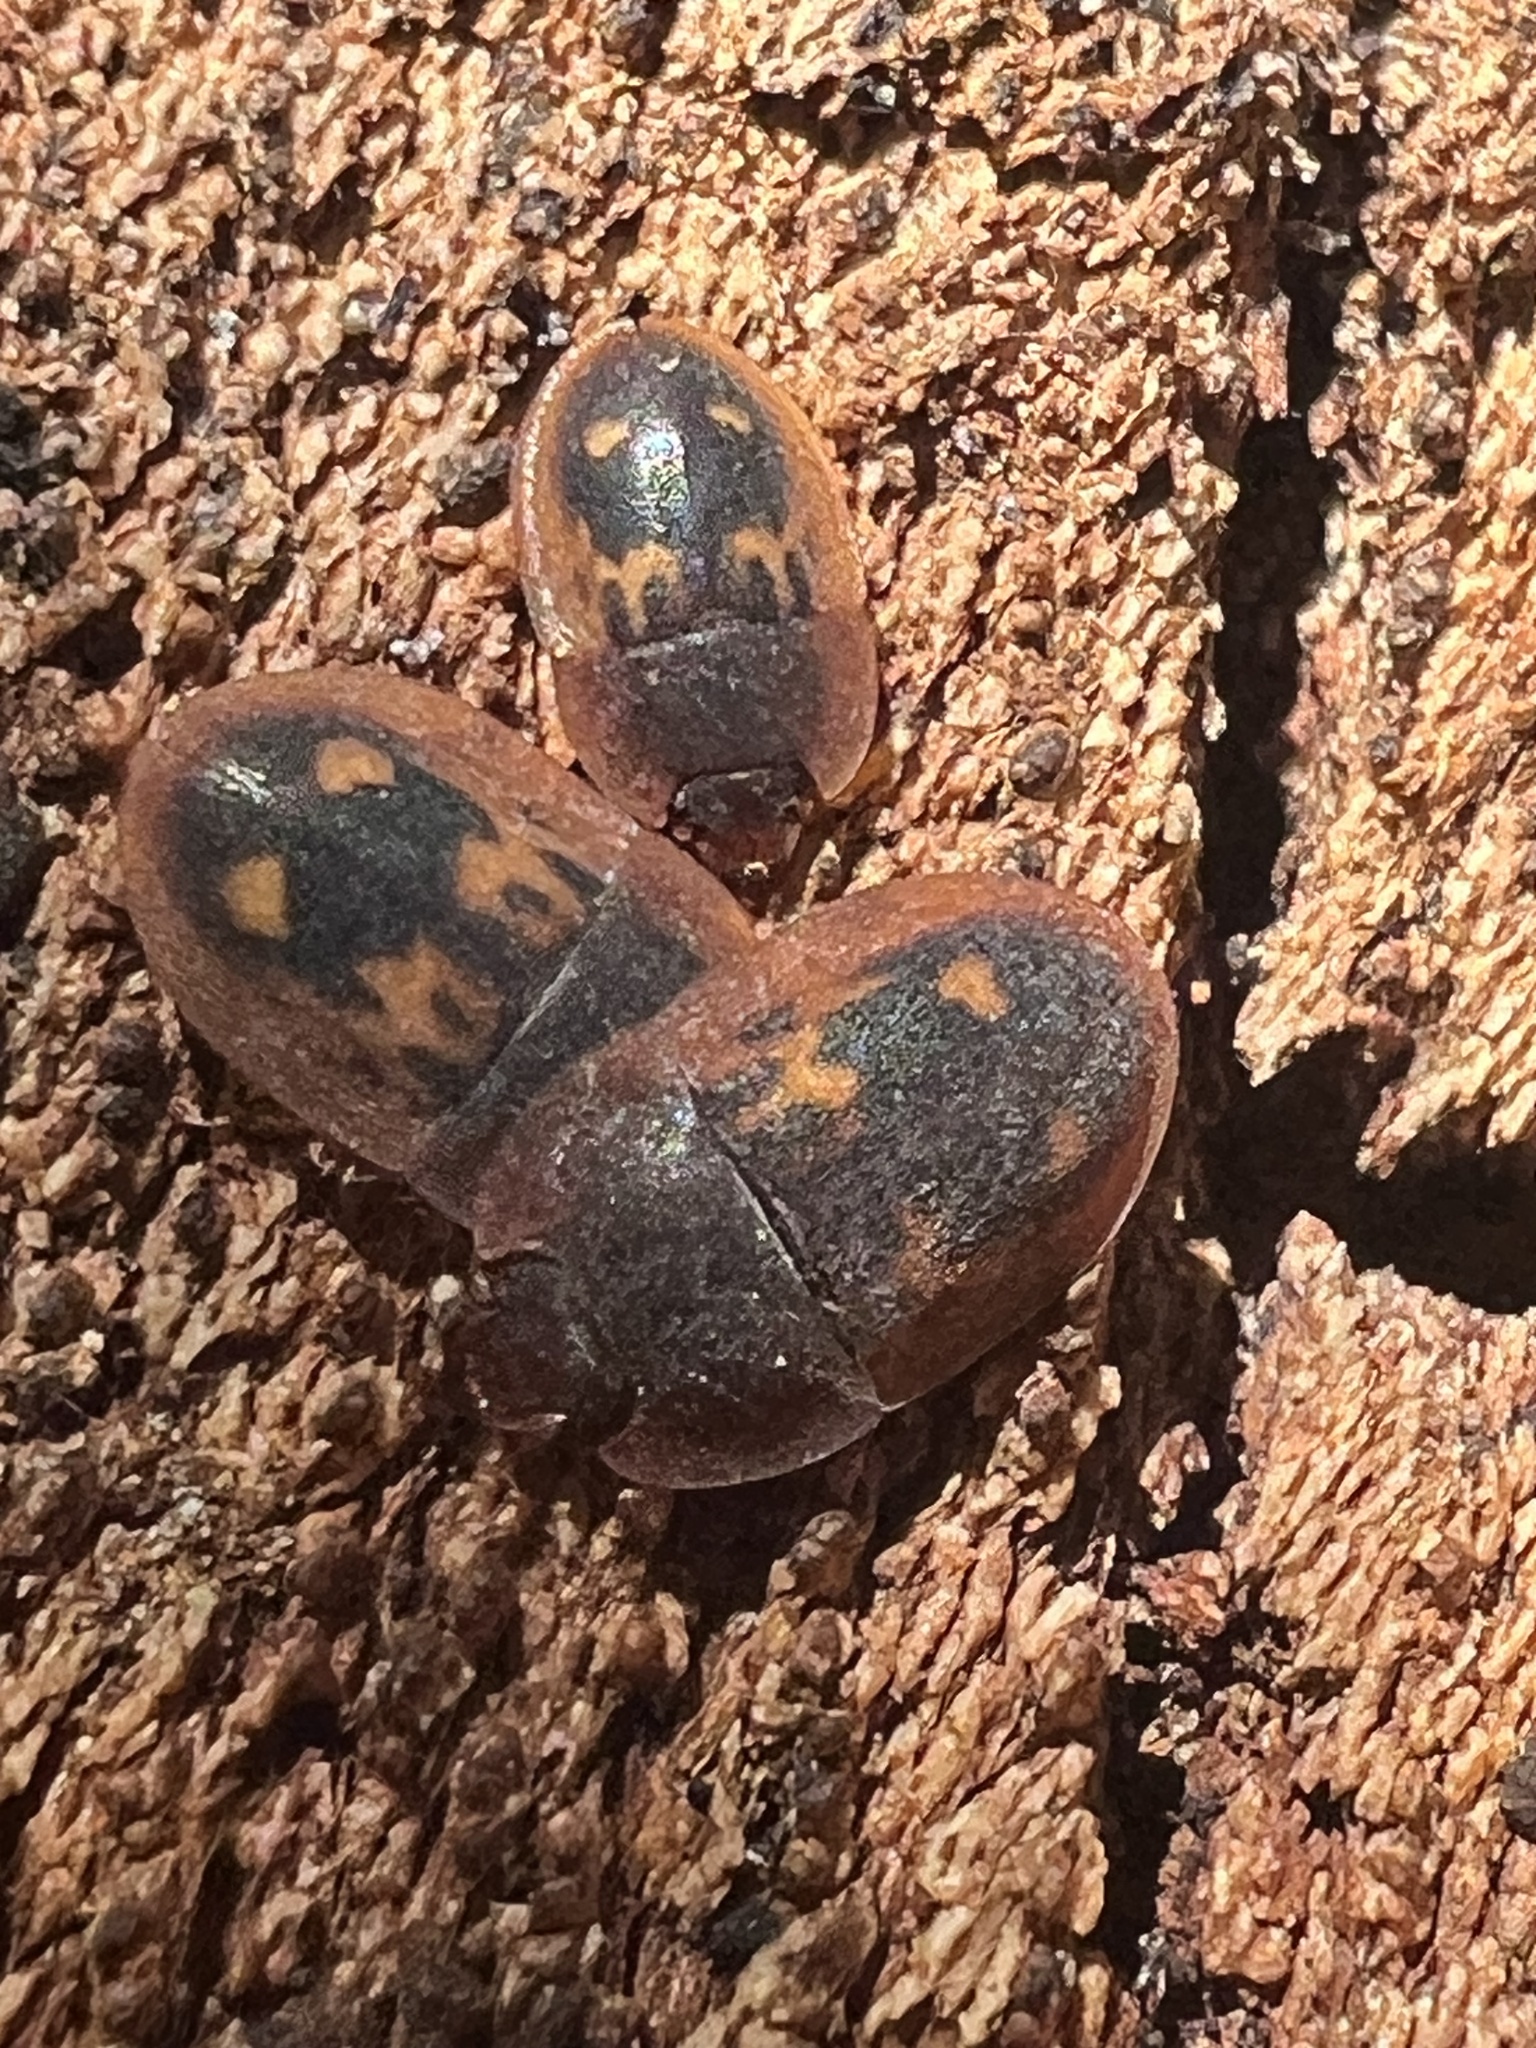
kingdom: Animalia
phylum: Arthropoda
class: Insecta
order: Coleoptera
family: Nitidulidae
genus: Prometopia
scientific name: Prometopia sexmaculata
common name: Six-spotted sap-feeding beetle
